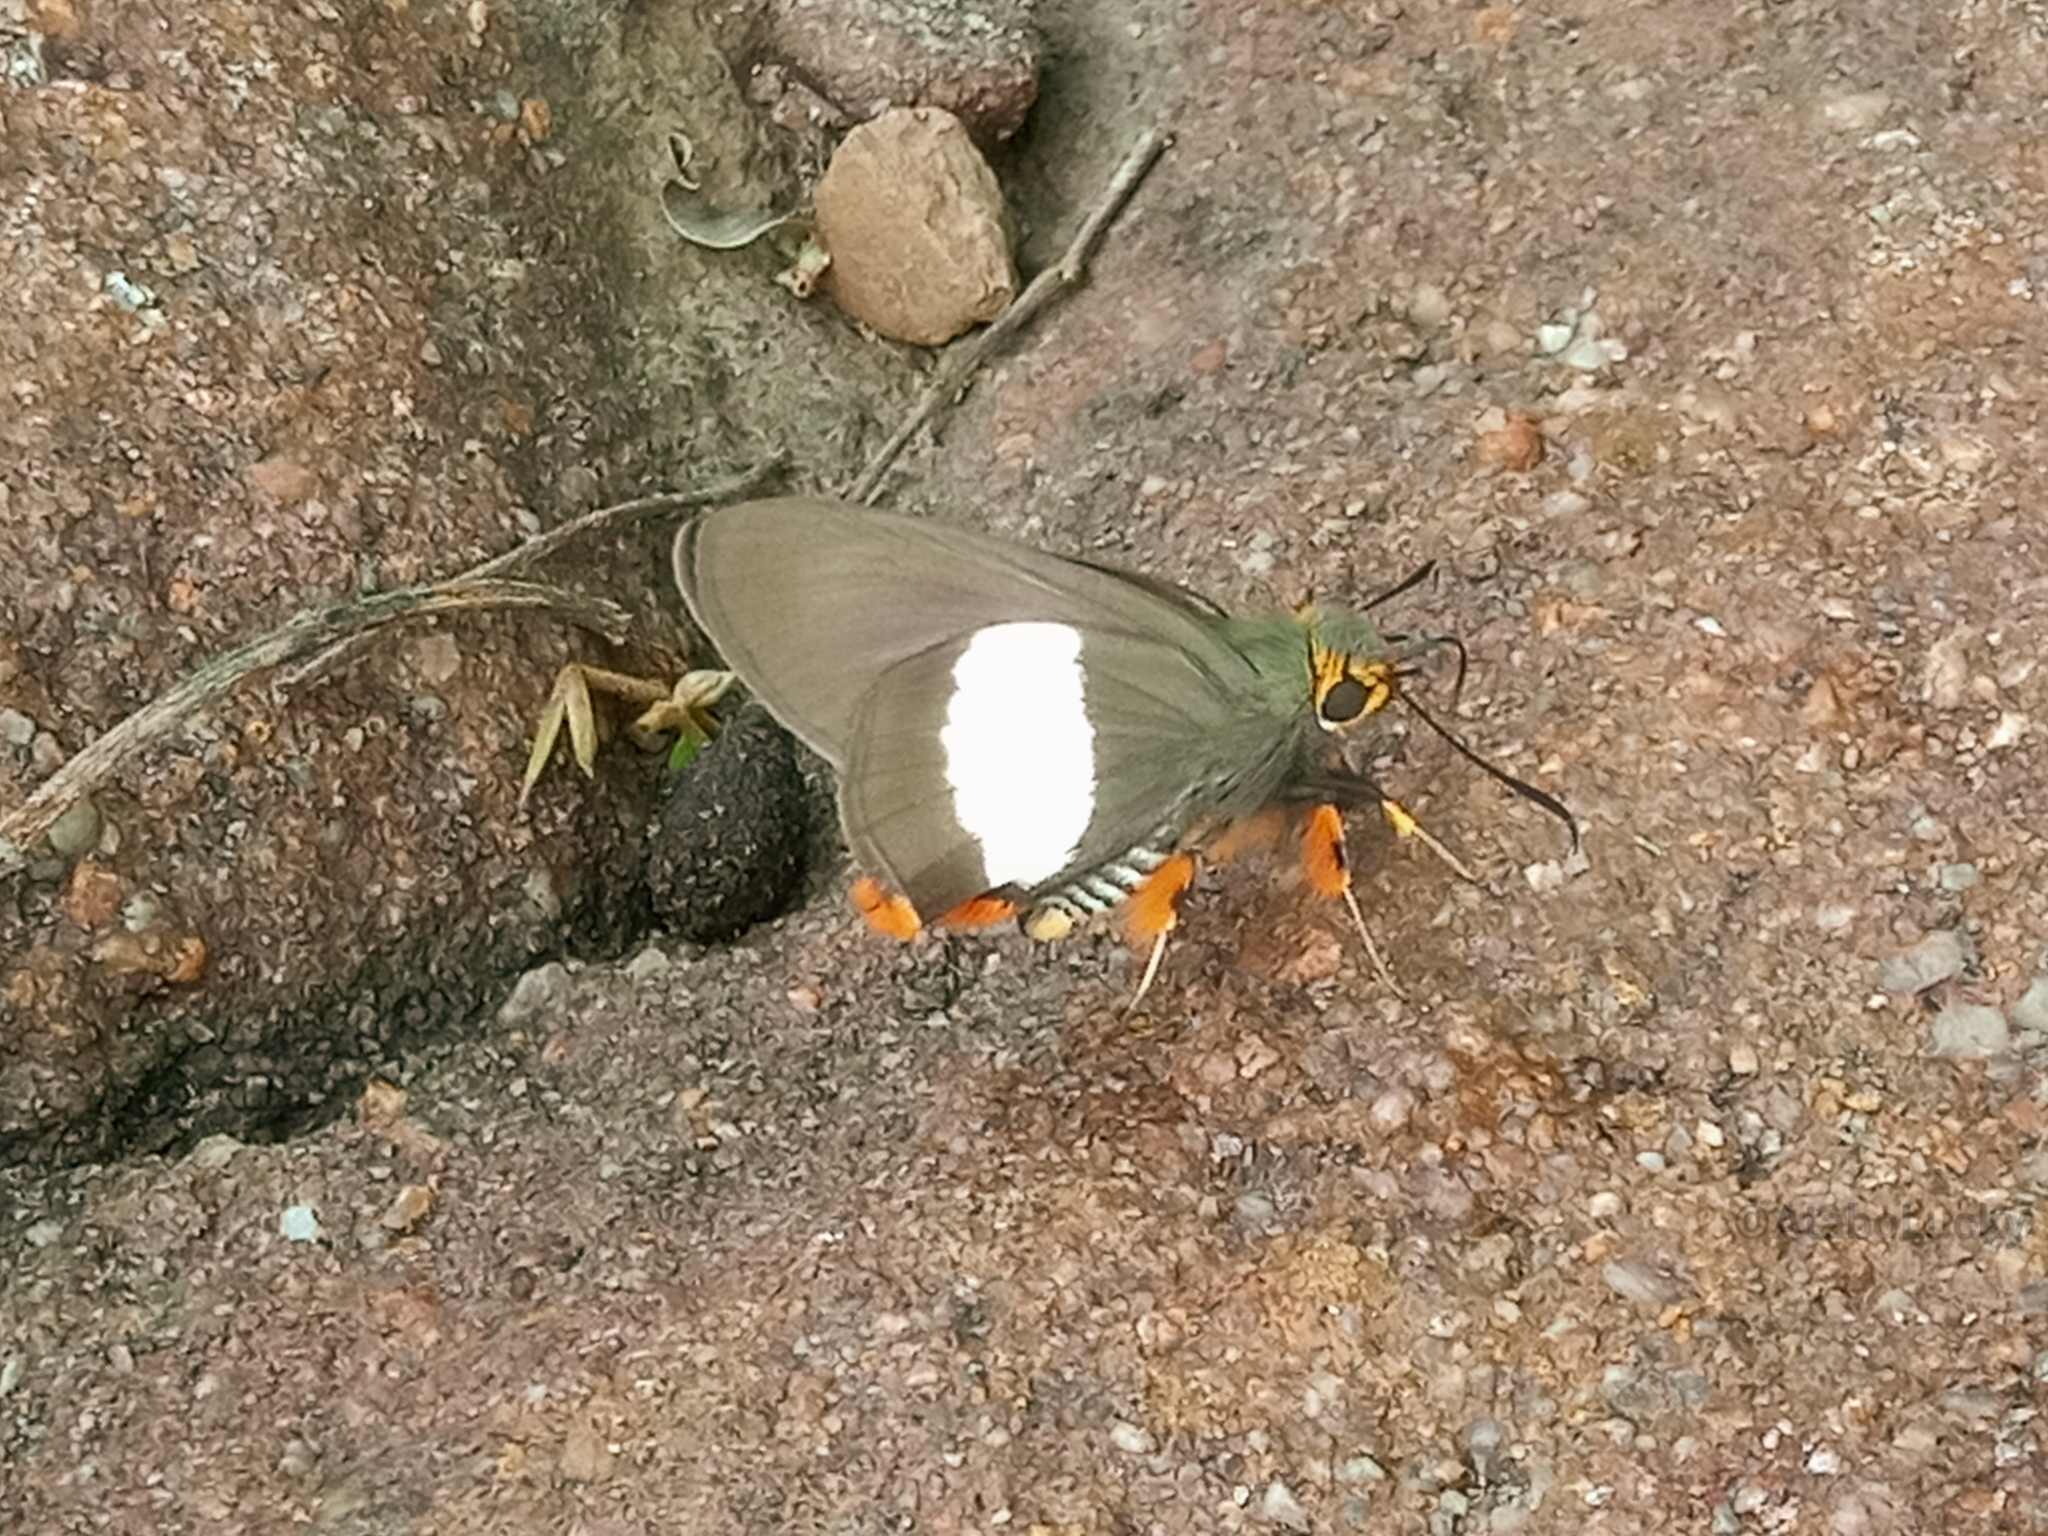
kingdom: Animalia
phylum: Arthropoda
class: Insecta
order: Lepidoptera
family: Hesperiidae
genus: Coeliades
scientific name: Coeliades forestan
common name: Striped policeman
